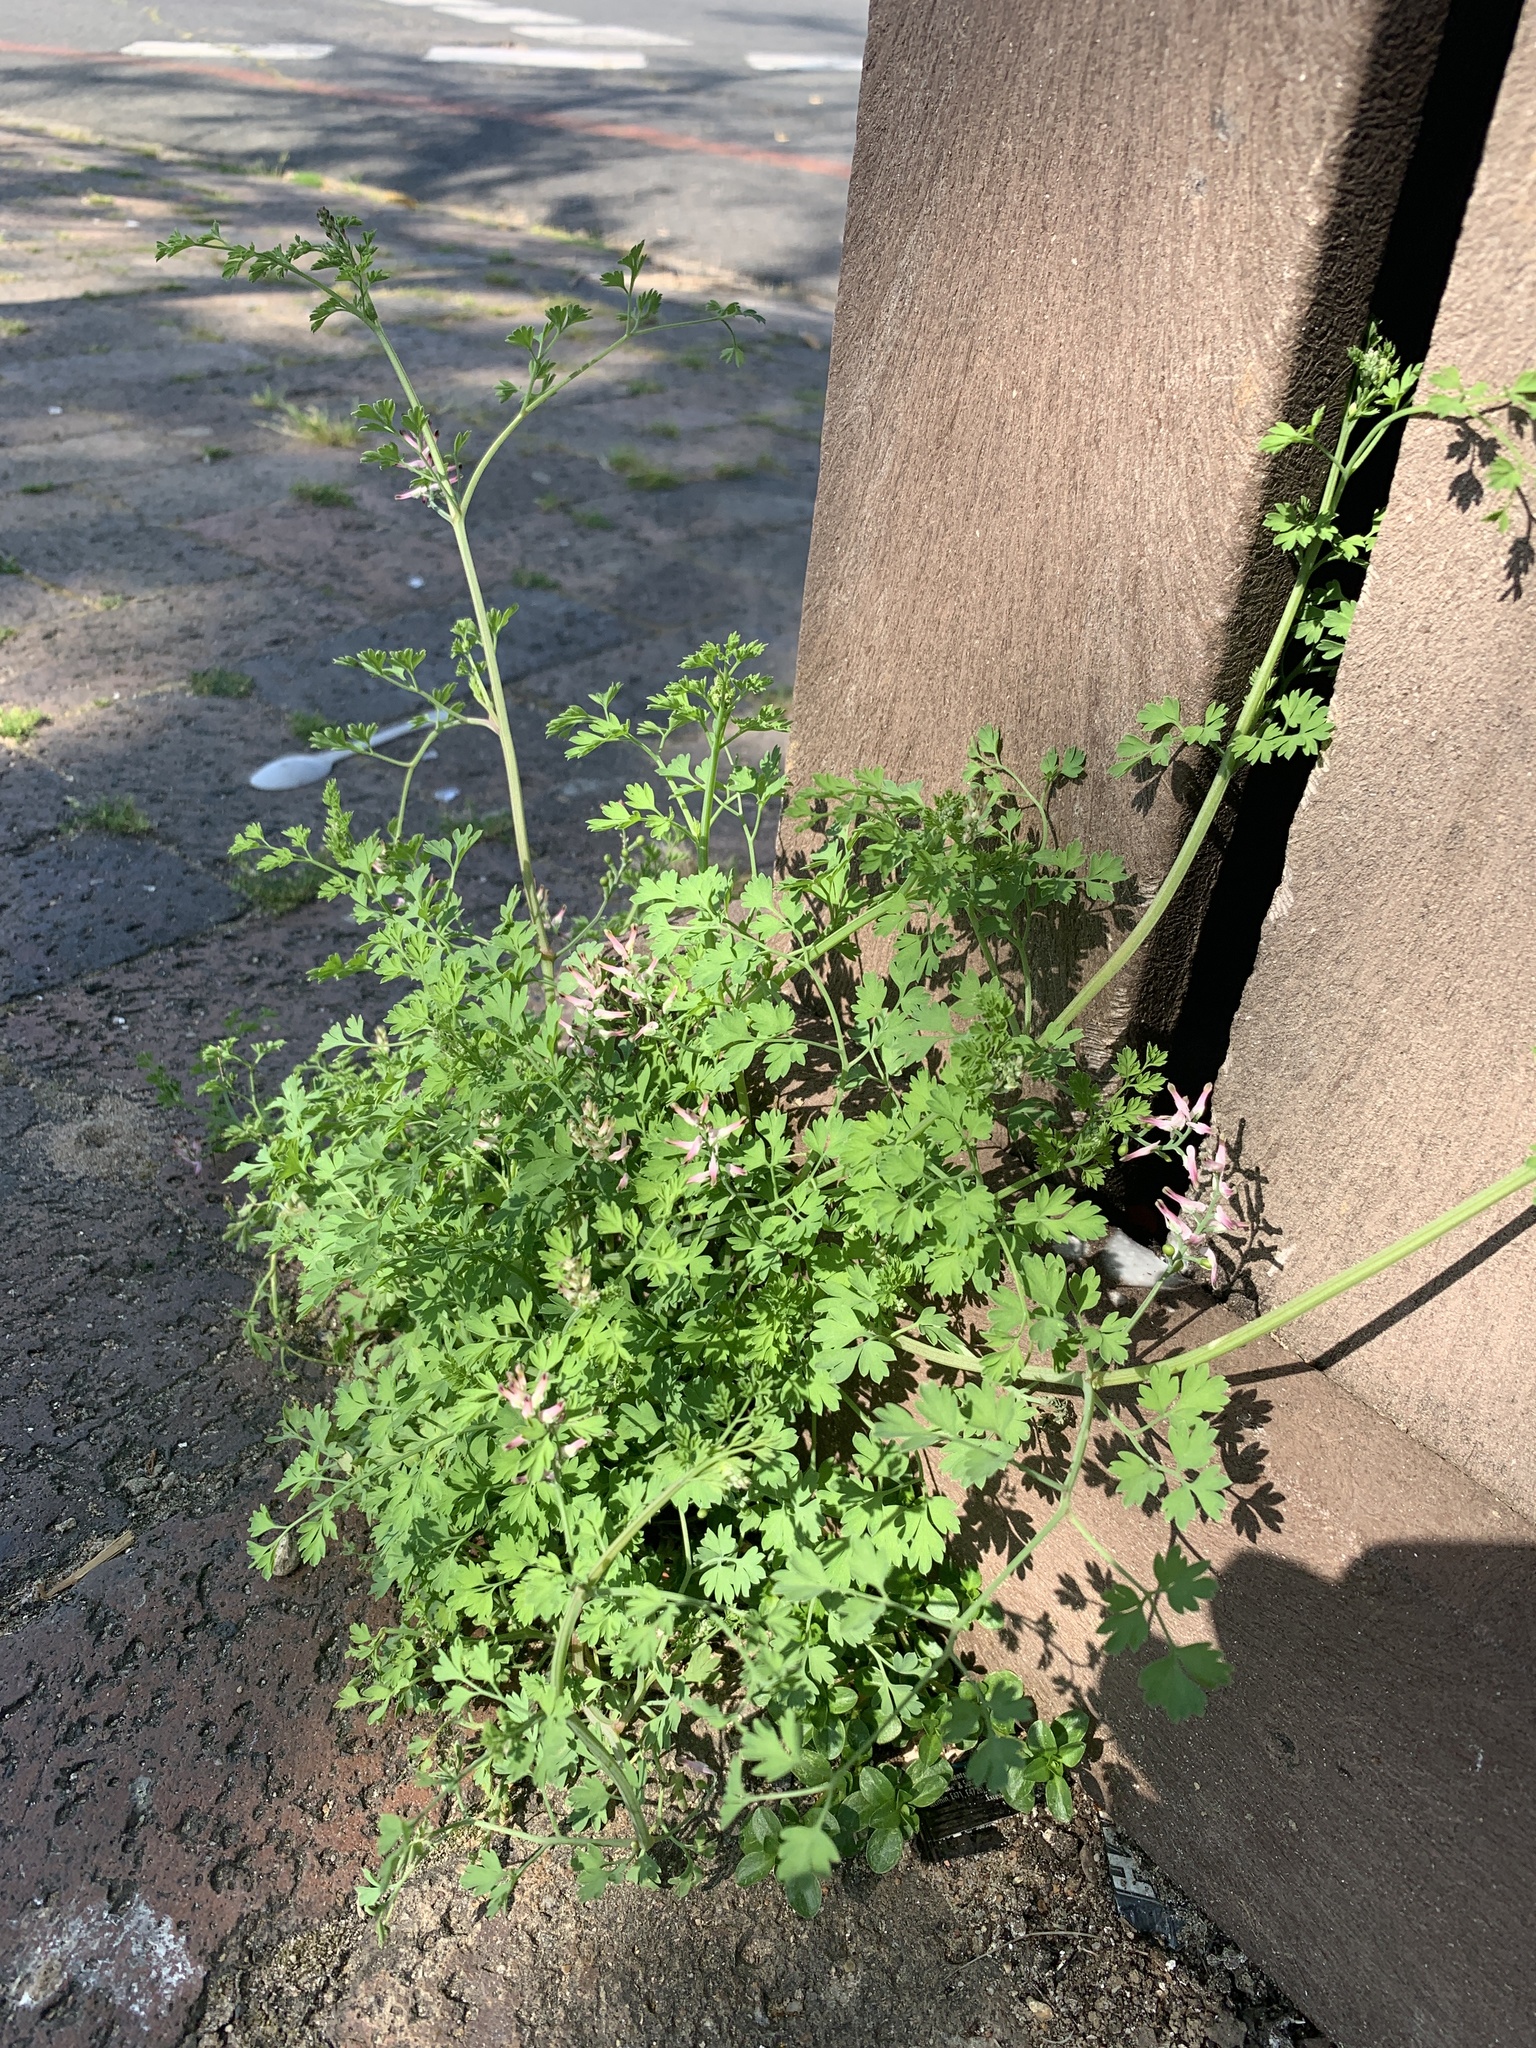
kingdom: Plantae
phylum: Tracheophyta
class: Magnoliopsida
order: Ranunculales
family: Papaveraceae
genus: Fumaria
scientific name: Fumaria muralis
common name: Common ramping-fumitory
